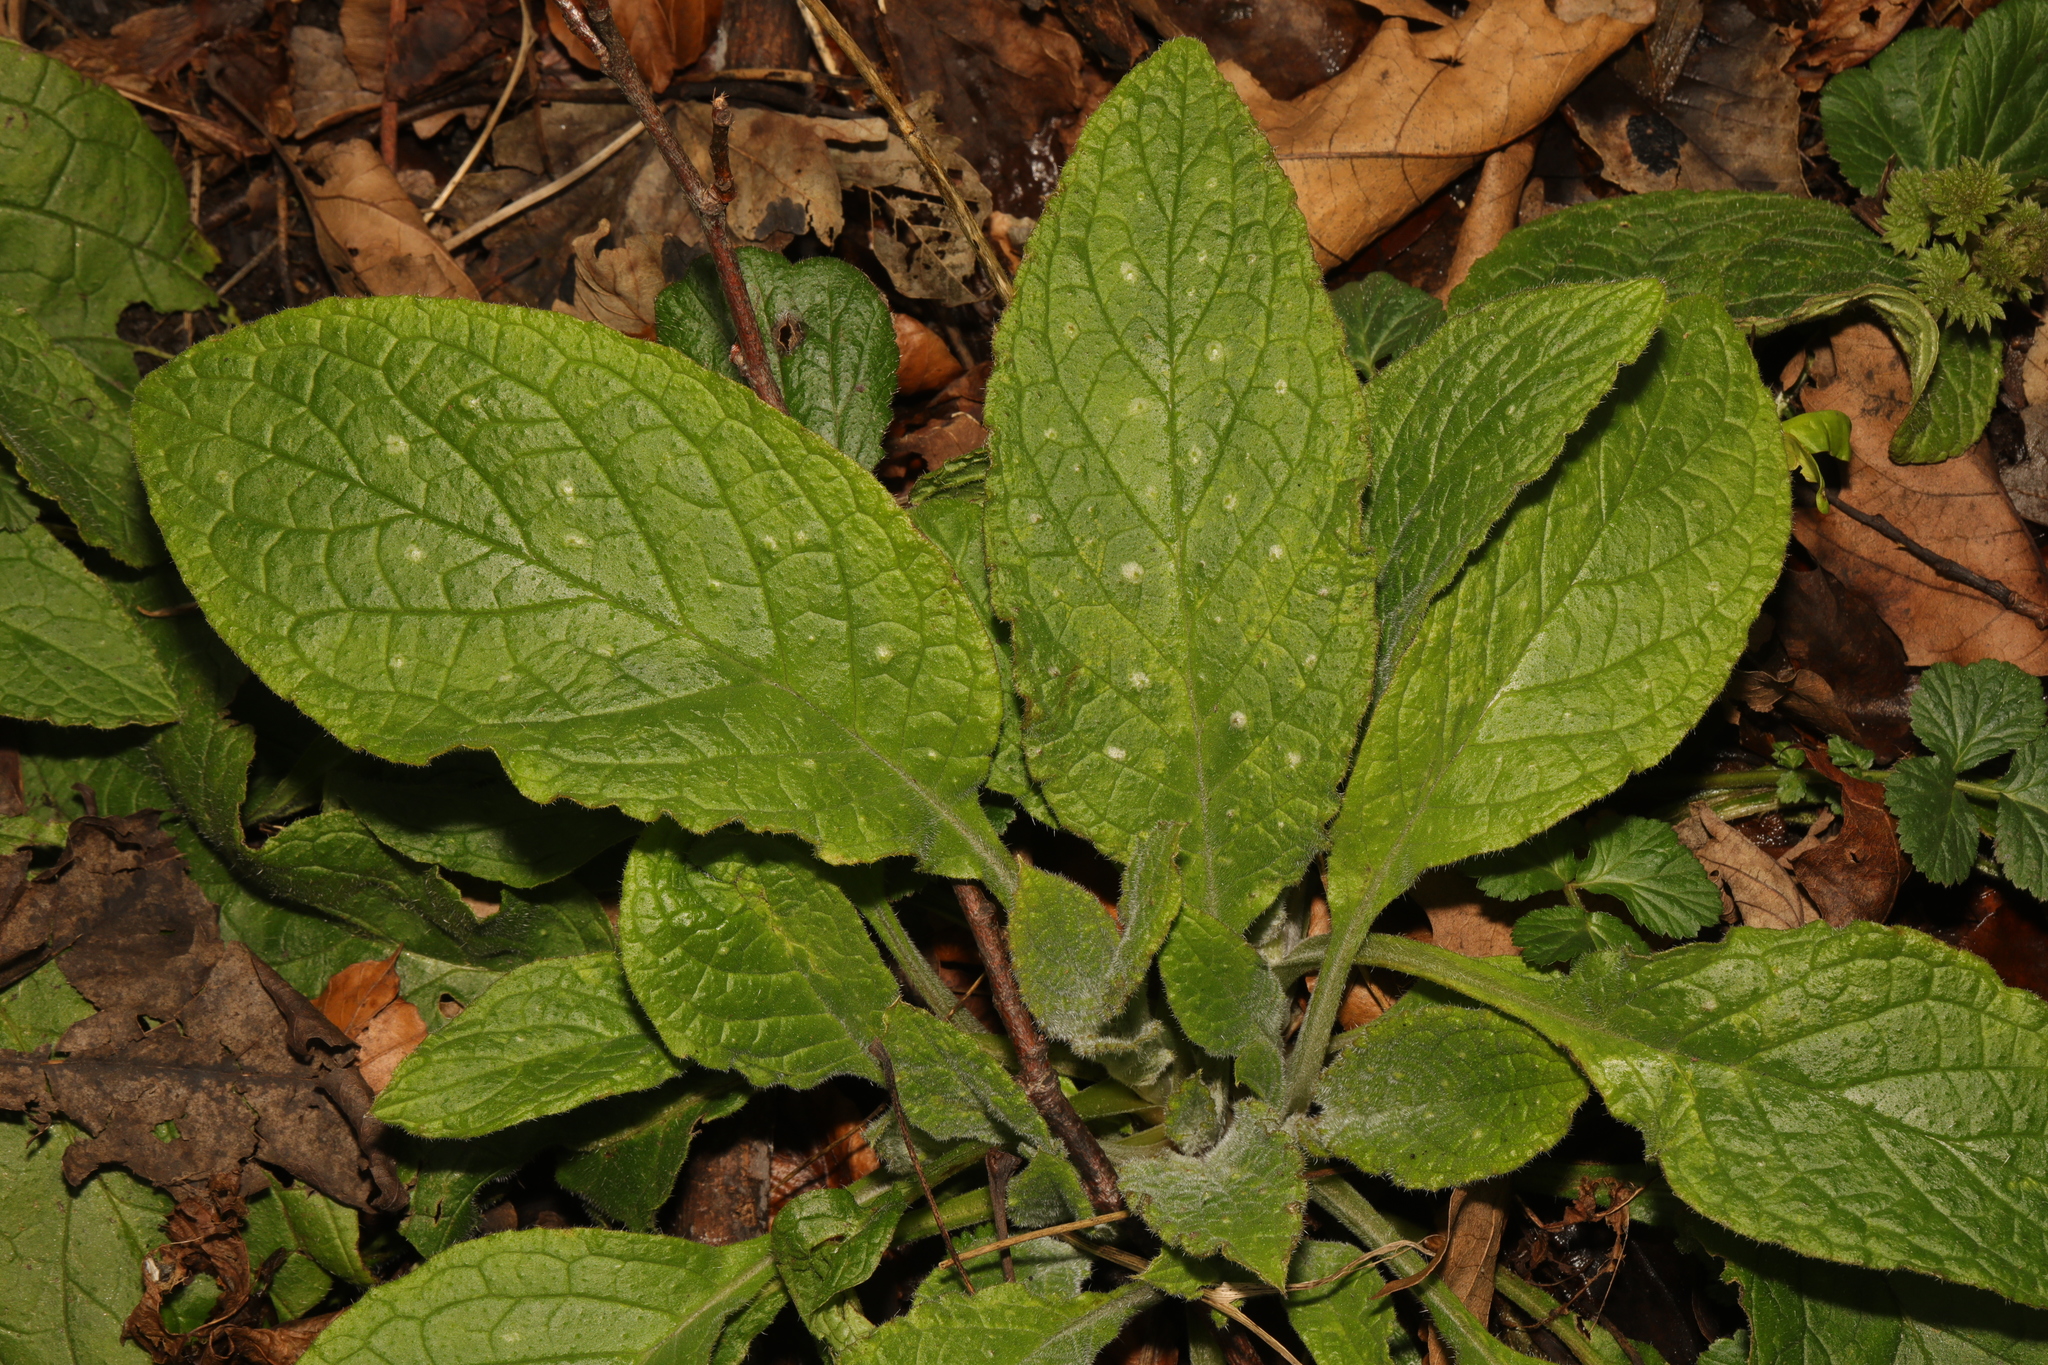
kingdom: Plantae
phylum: Tracheophyta
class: Magnoliopsida
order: Boraginales
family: Boraginaceae
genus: Pentaglottis
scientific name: Pentaglottis sempervirens
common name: Green alkanet
